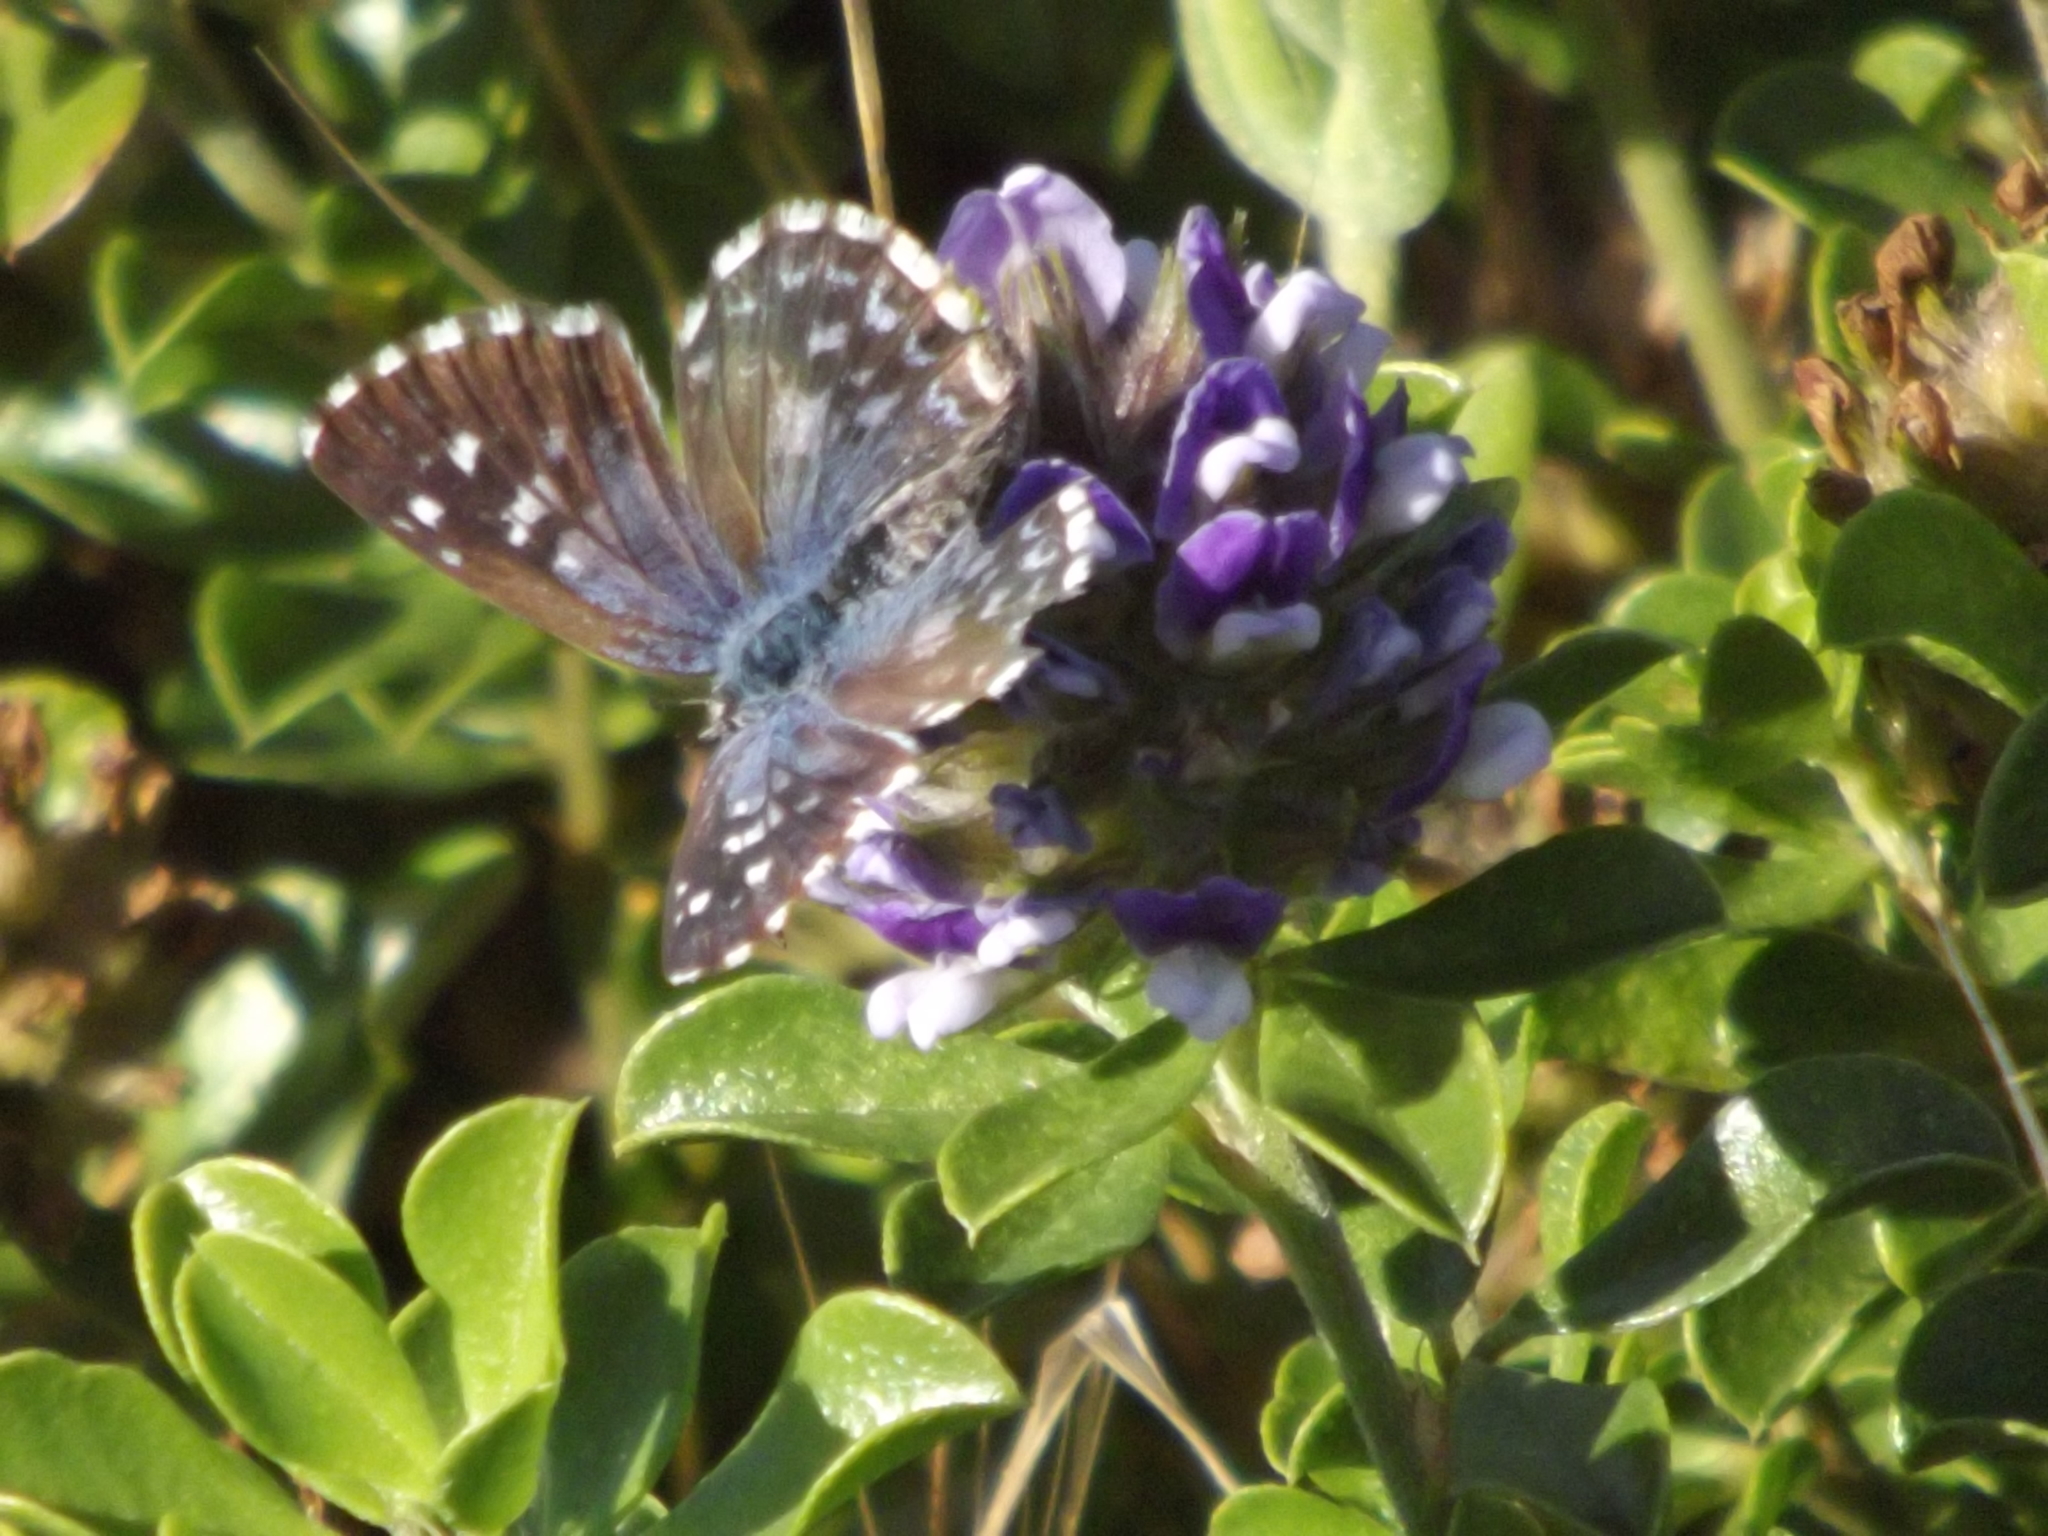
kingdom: Animalia
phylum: Arthropoda
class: Insecta
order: Lepidoptera
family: Lycaenidae
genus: Tarucus
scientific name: Tarucus thespis
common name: Vivid dotted blue
